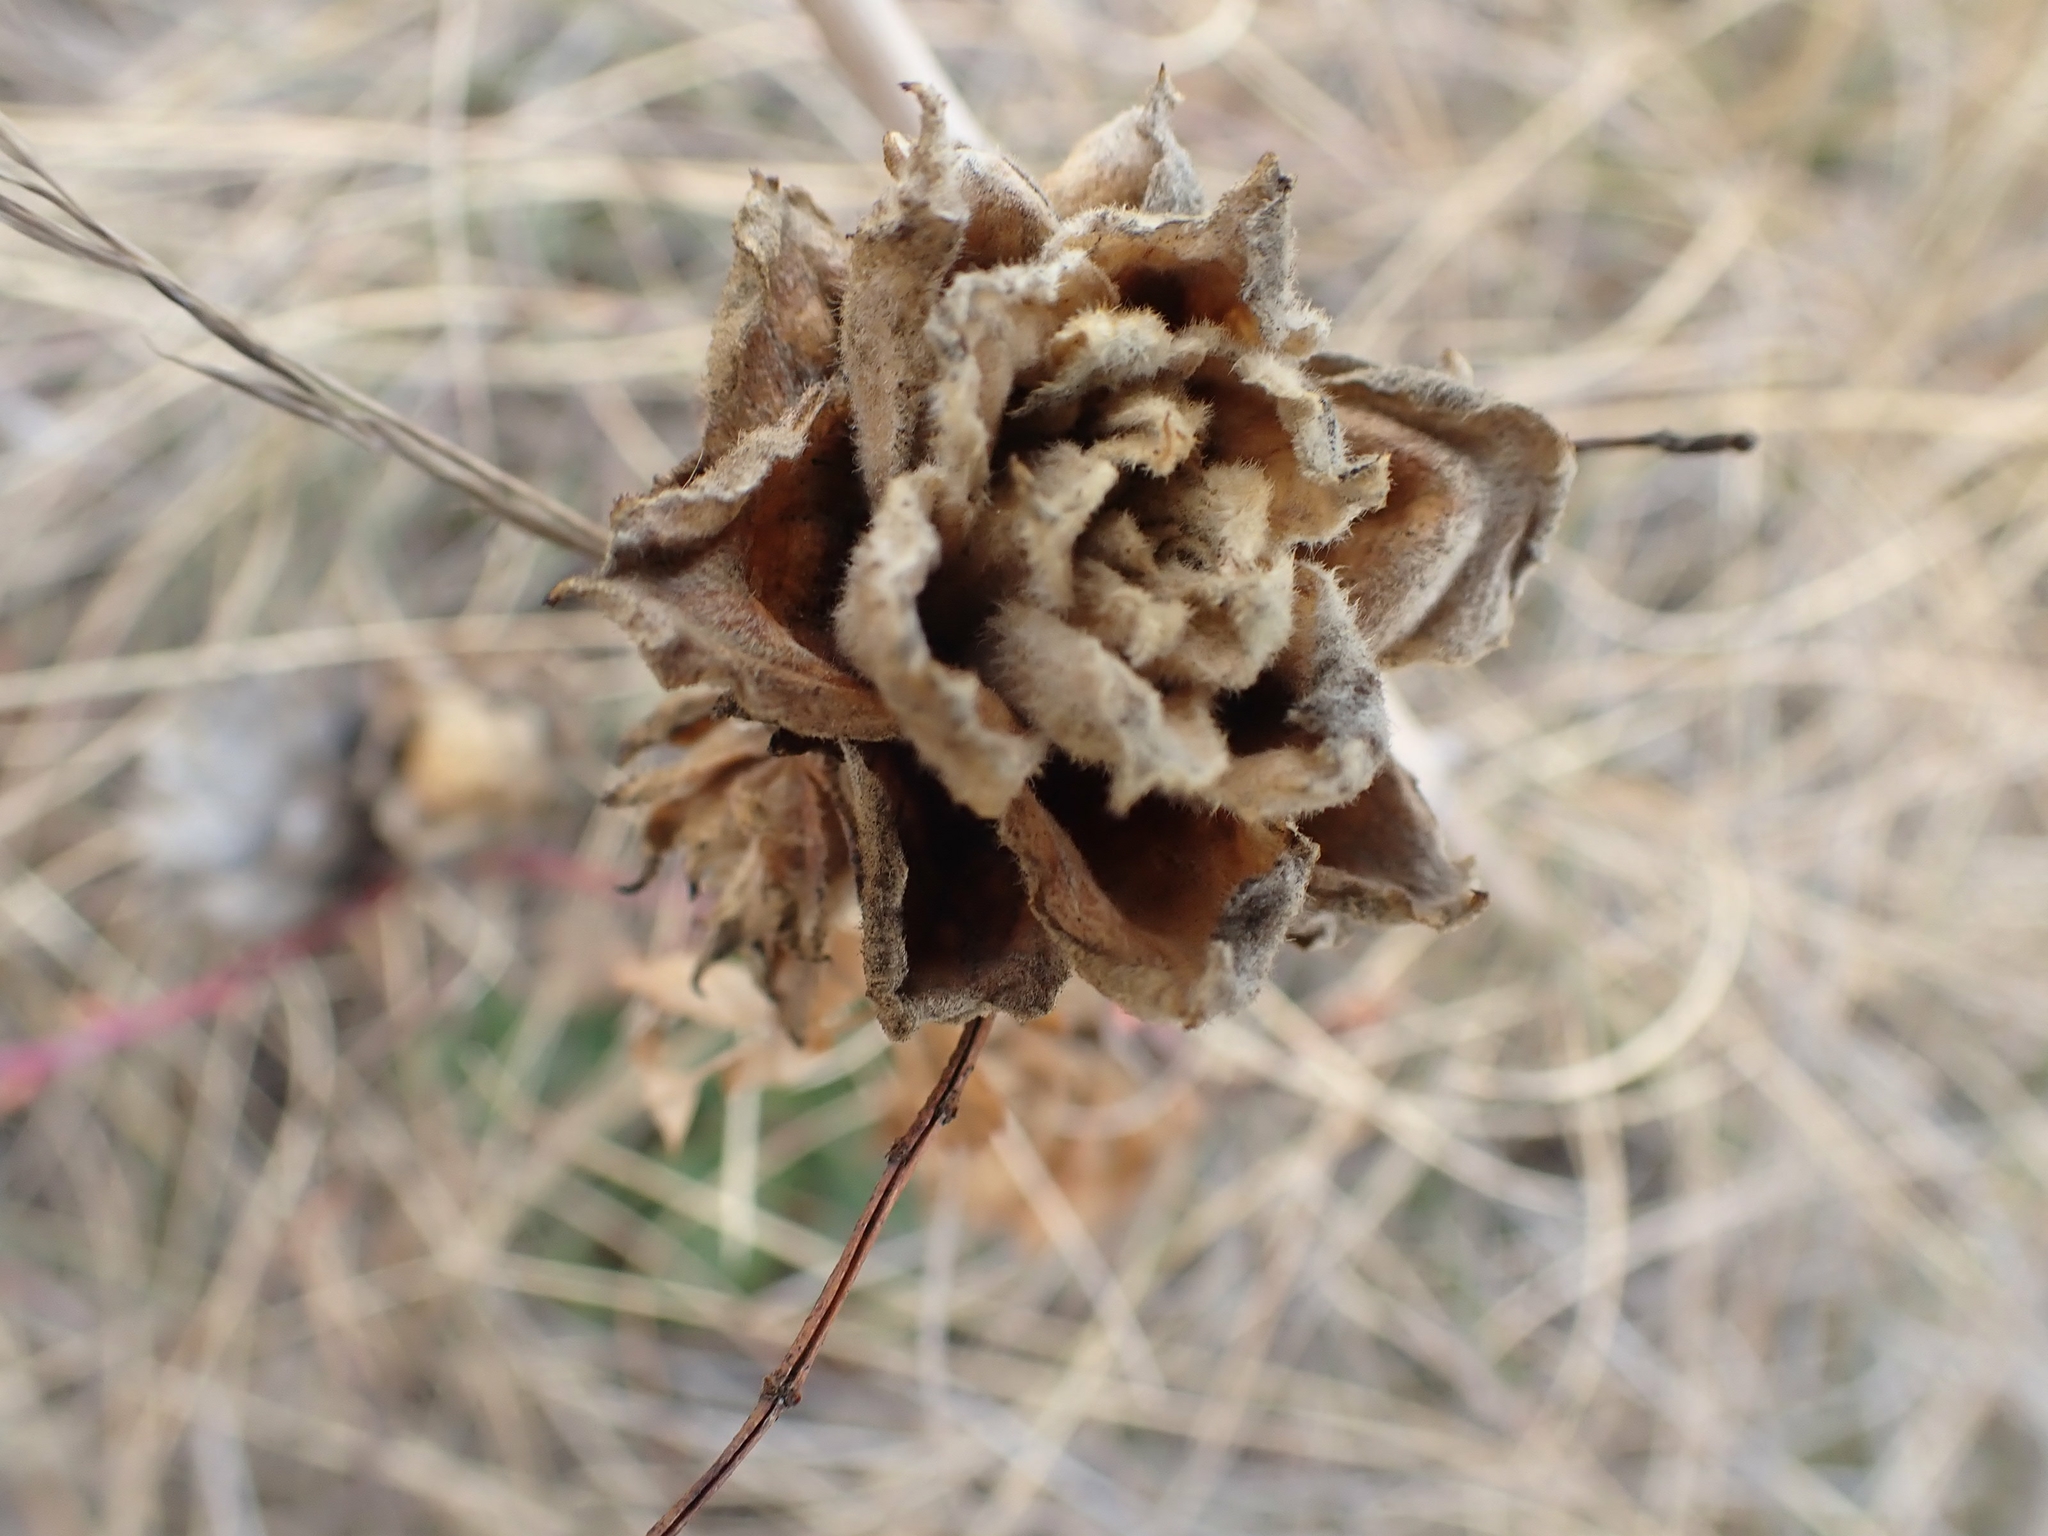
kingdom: Animalia
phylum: Arthropoda
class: Insecta
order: Diptera
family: Cecidomyiidae
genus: Rabdophaga
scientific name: Rabdophaga rosacea
